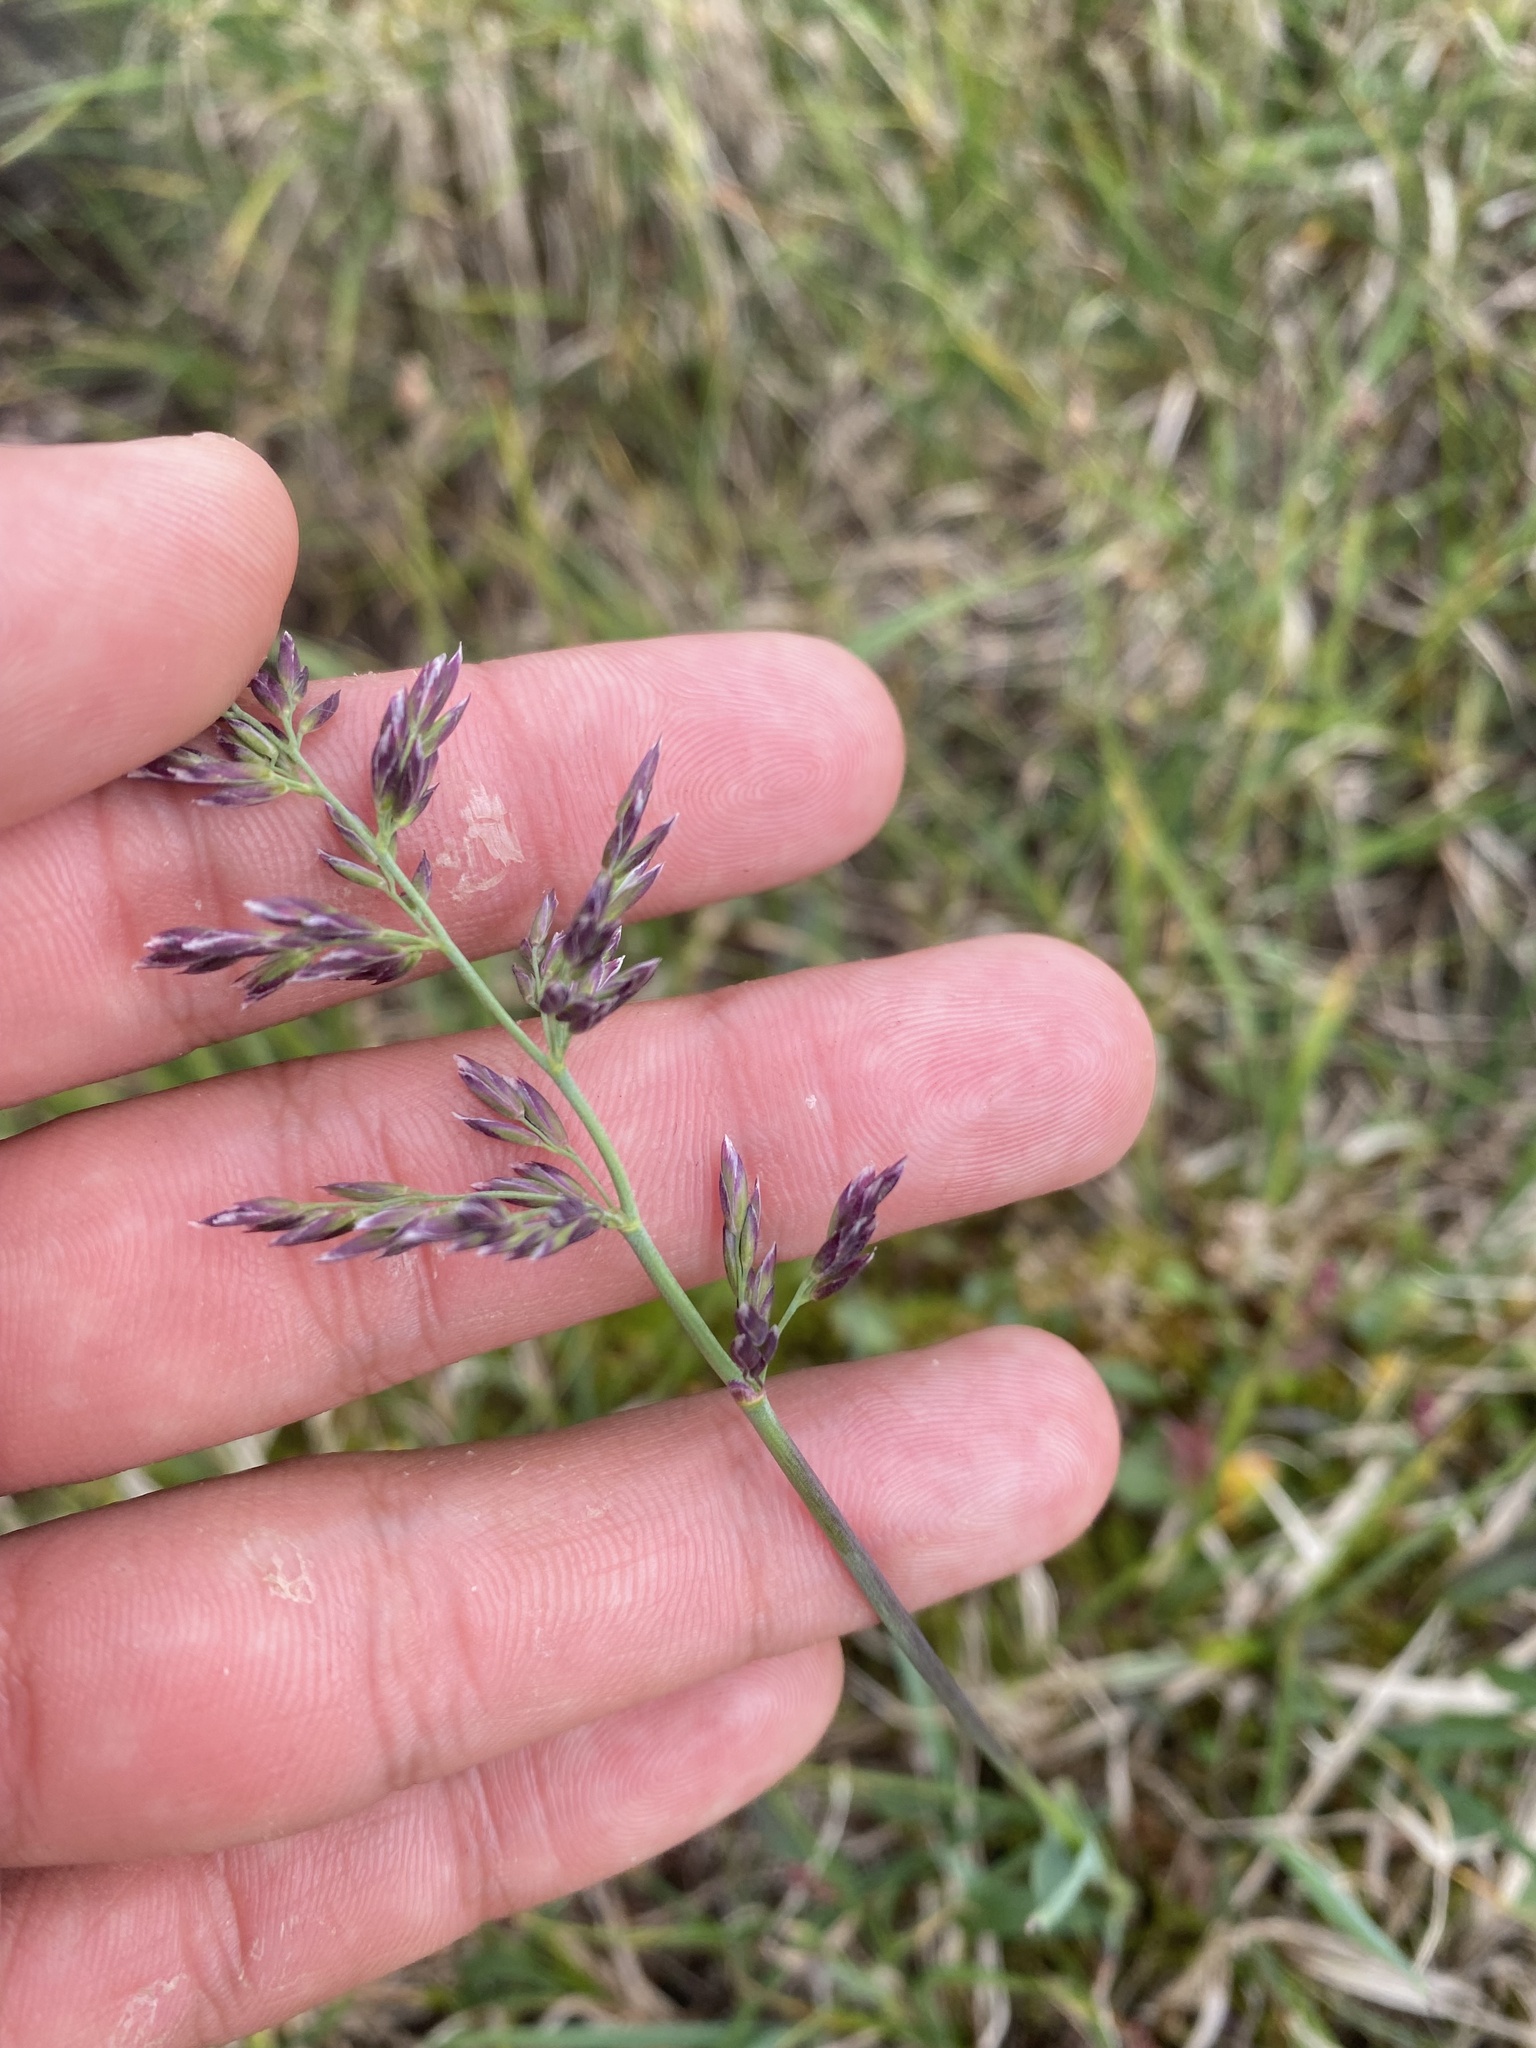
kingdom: Plantae
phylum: Tracheophyta
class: Liliopsida
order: Poales
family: Poaceae
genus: Arctagrostis
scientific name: Arctagrostis latifolia
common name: Arctic grass
